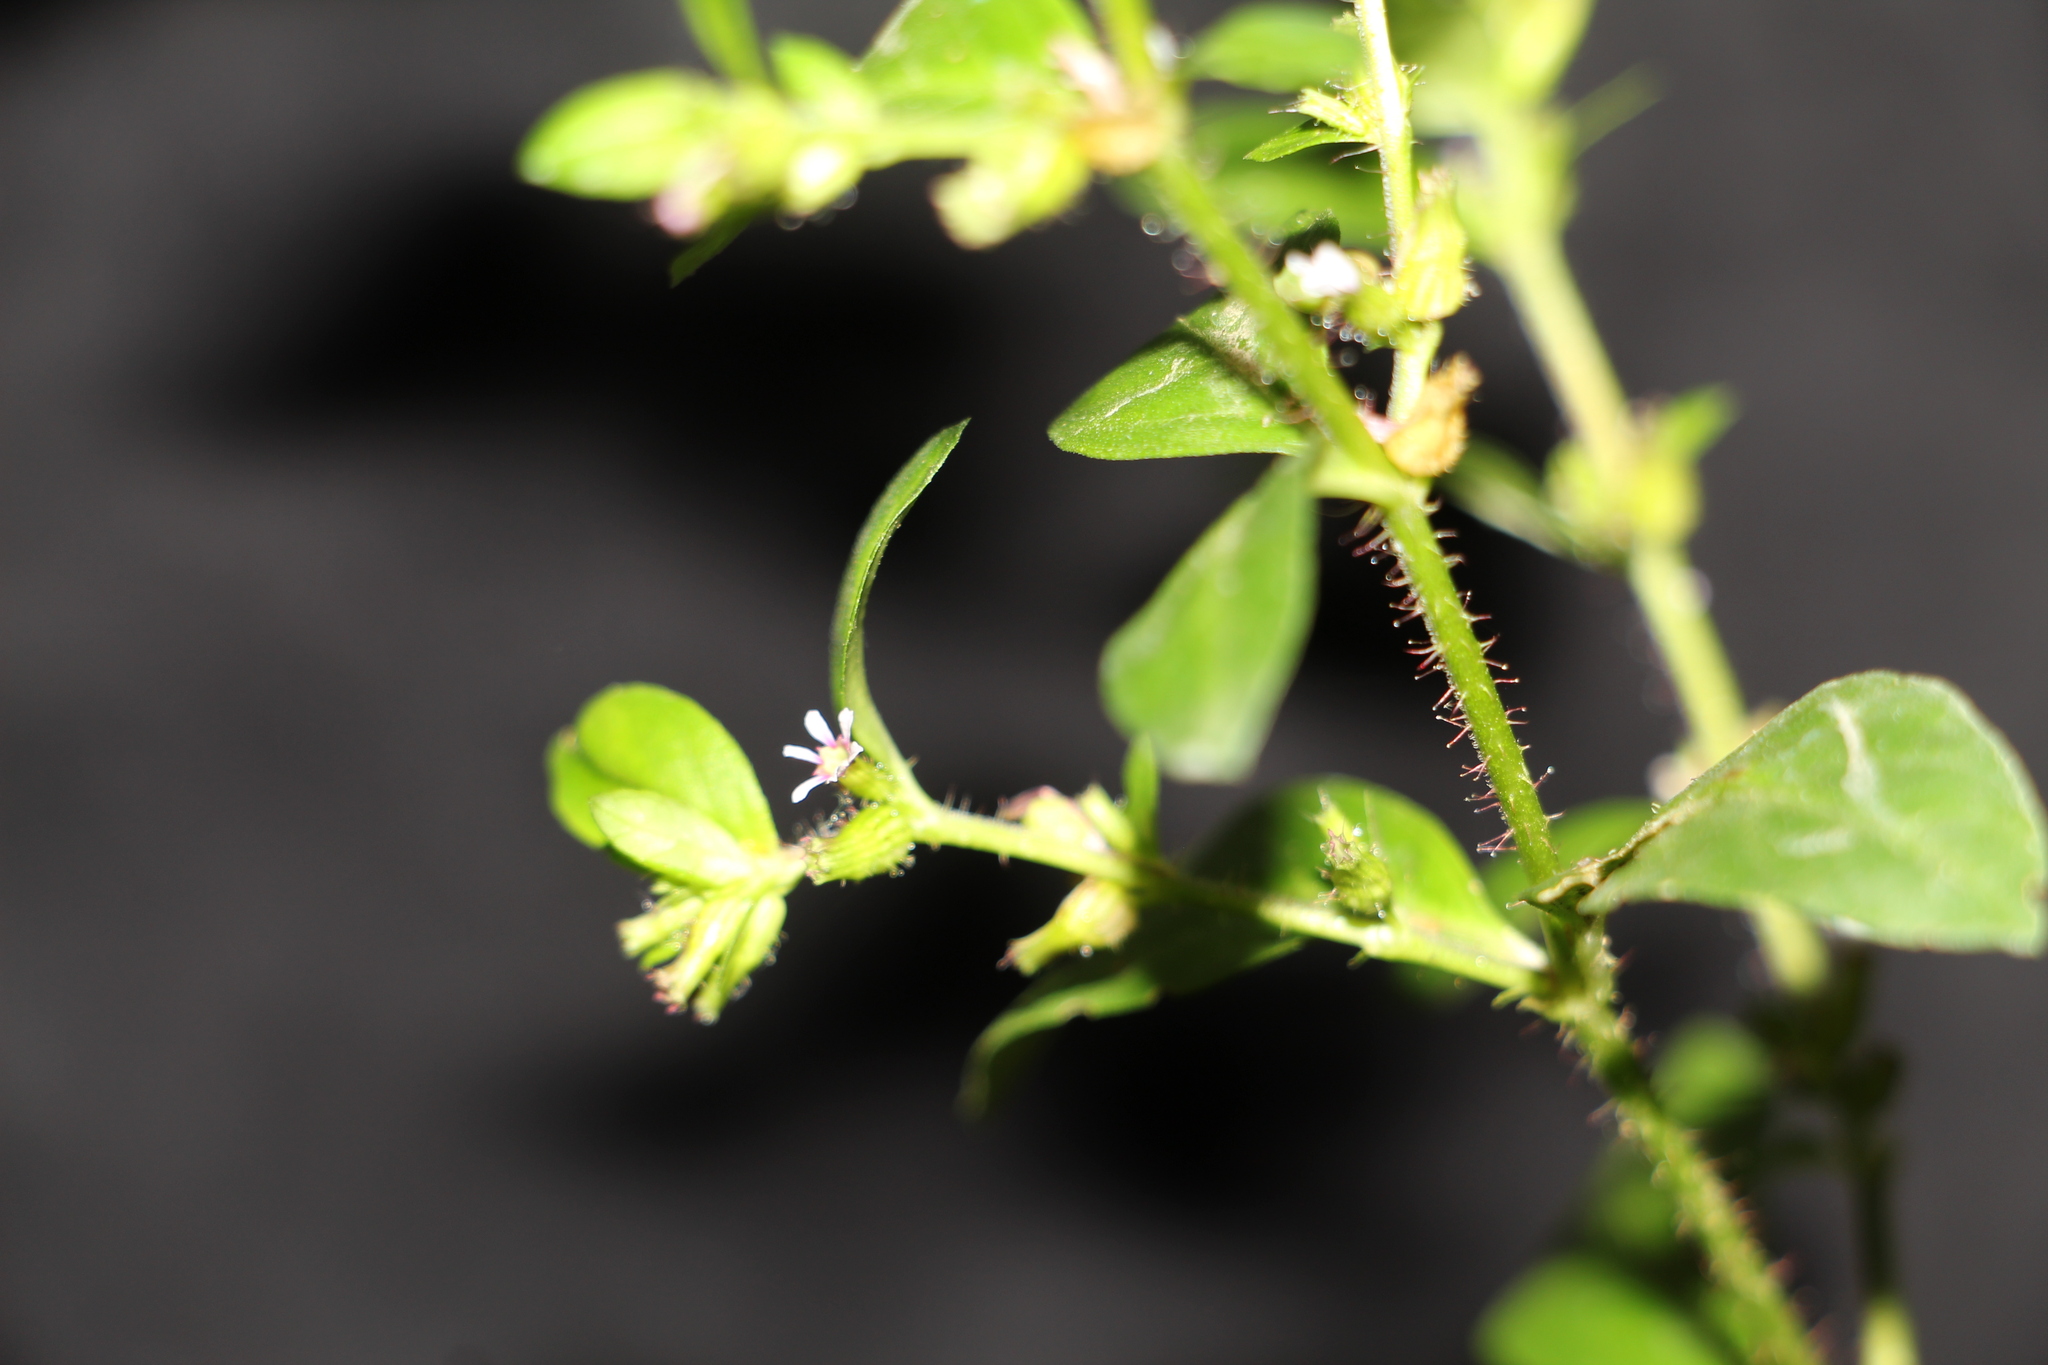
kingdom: Plantae
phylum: Tracheophyta
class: Magnoliopsida
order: Myrtales
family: Lythraceae
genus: Cuphea
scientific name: Cuphea carthagenensis
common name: Colombian waxweed
